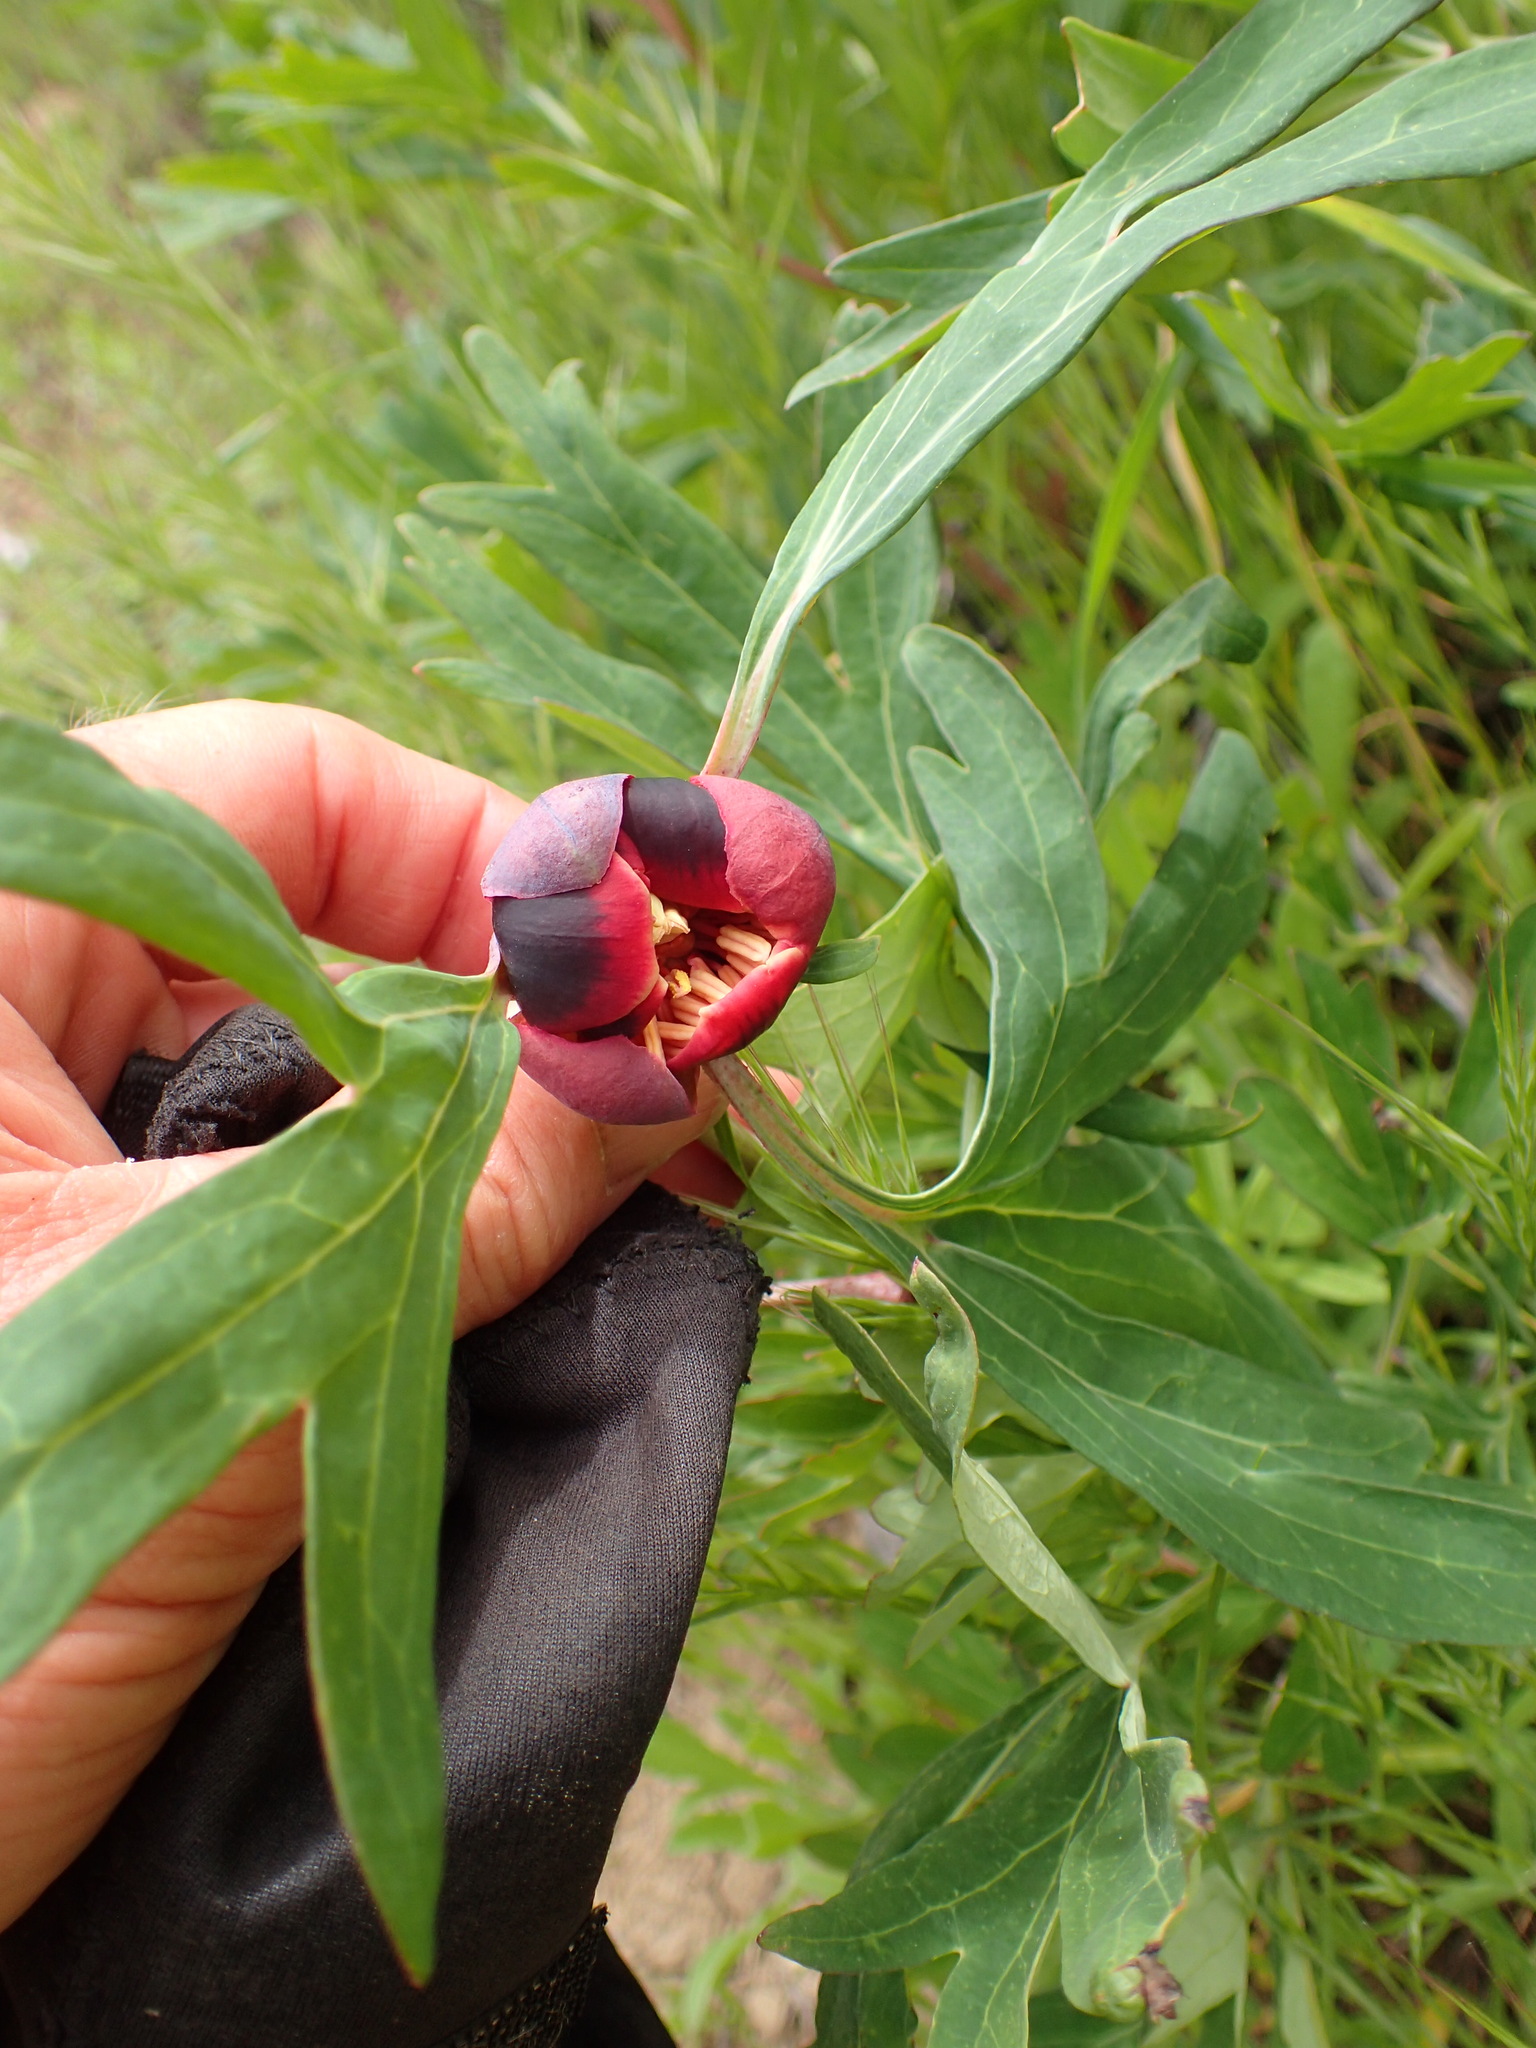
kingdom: Plantae
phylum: Tracheophyta
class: Magnoliopsida
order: Saxifragales
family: Paeoniaceae
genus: Paeonia
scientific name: Paeonia californica
